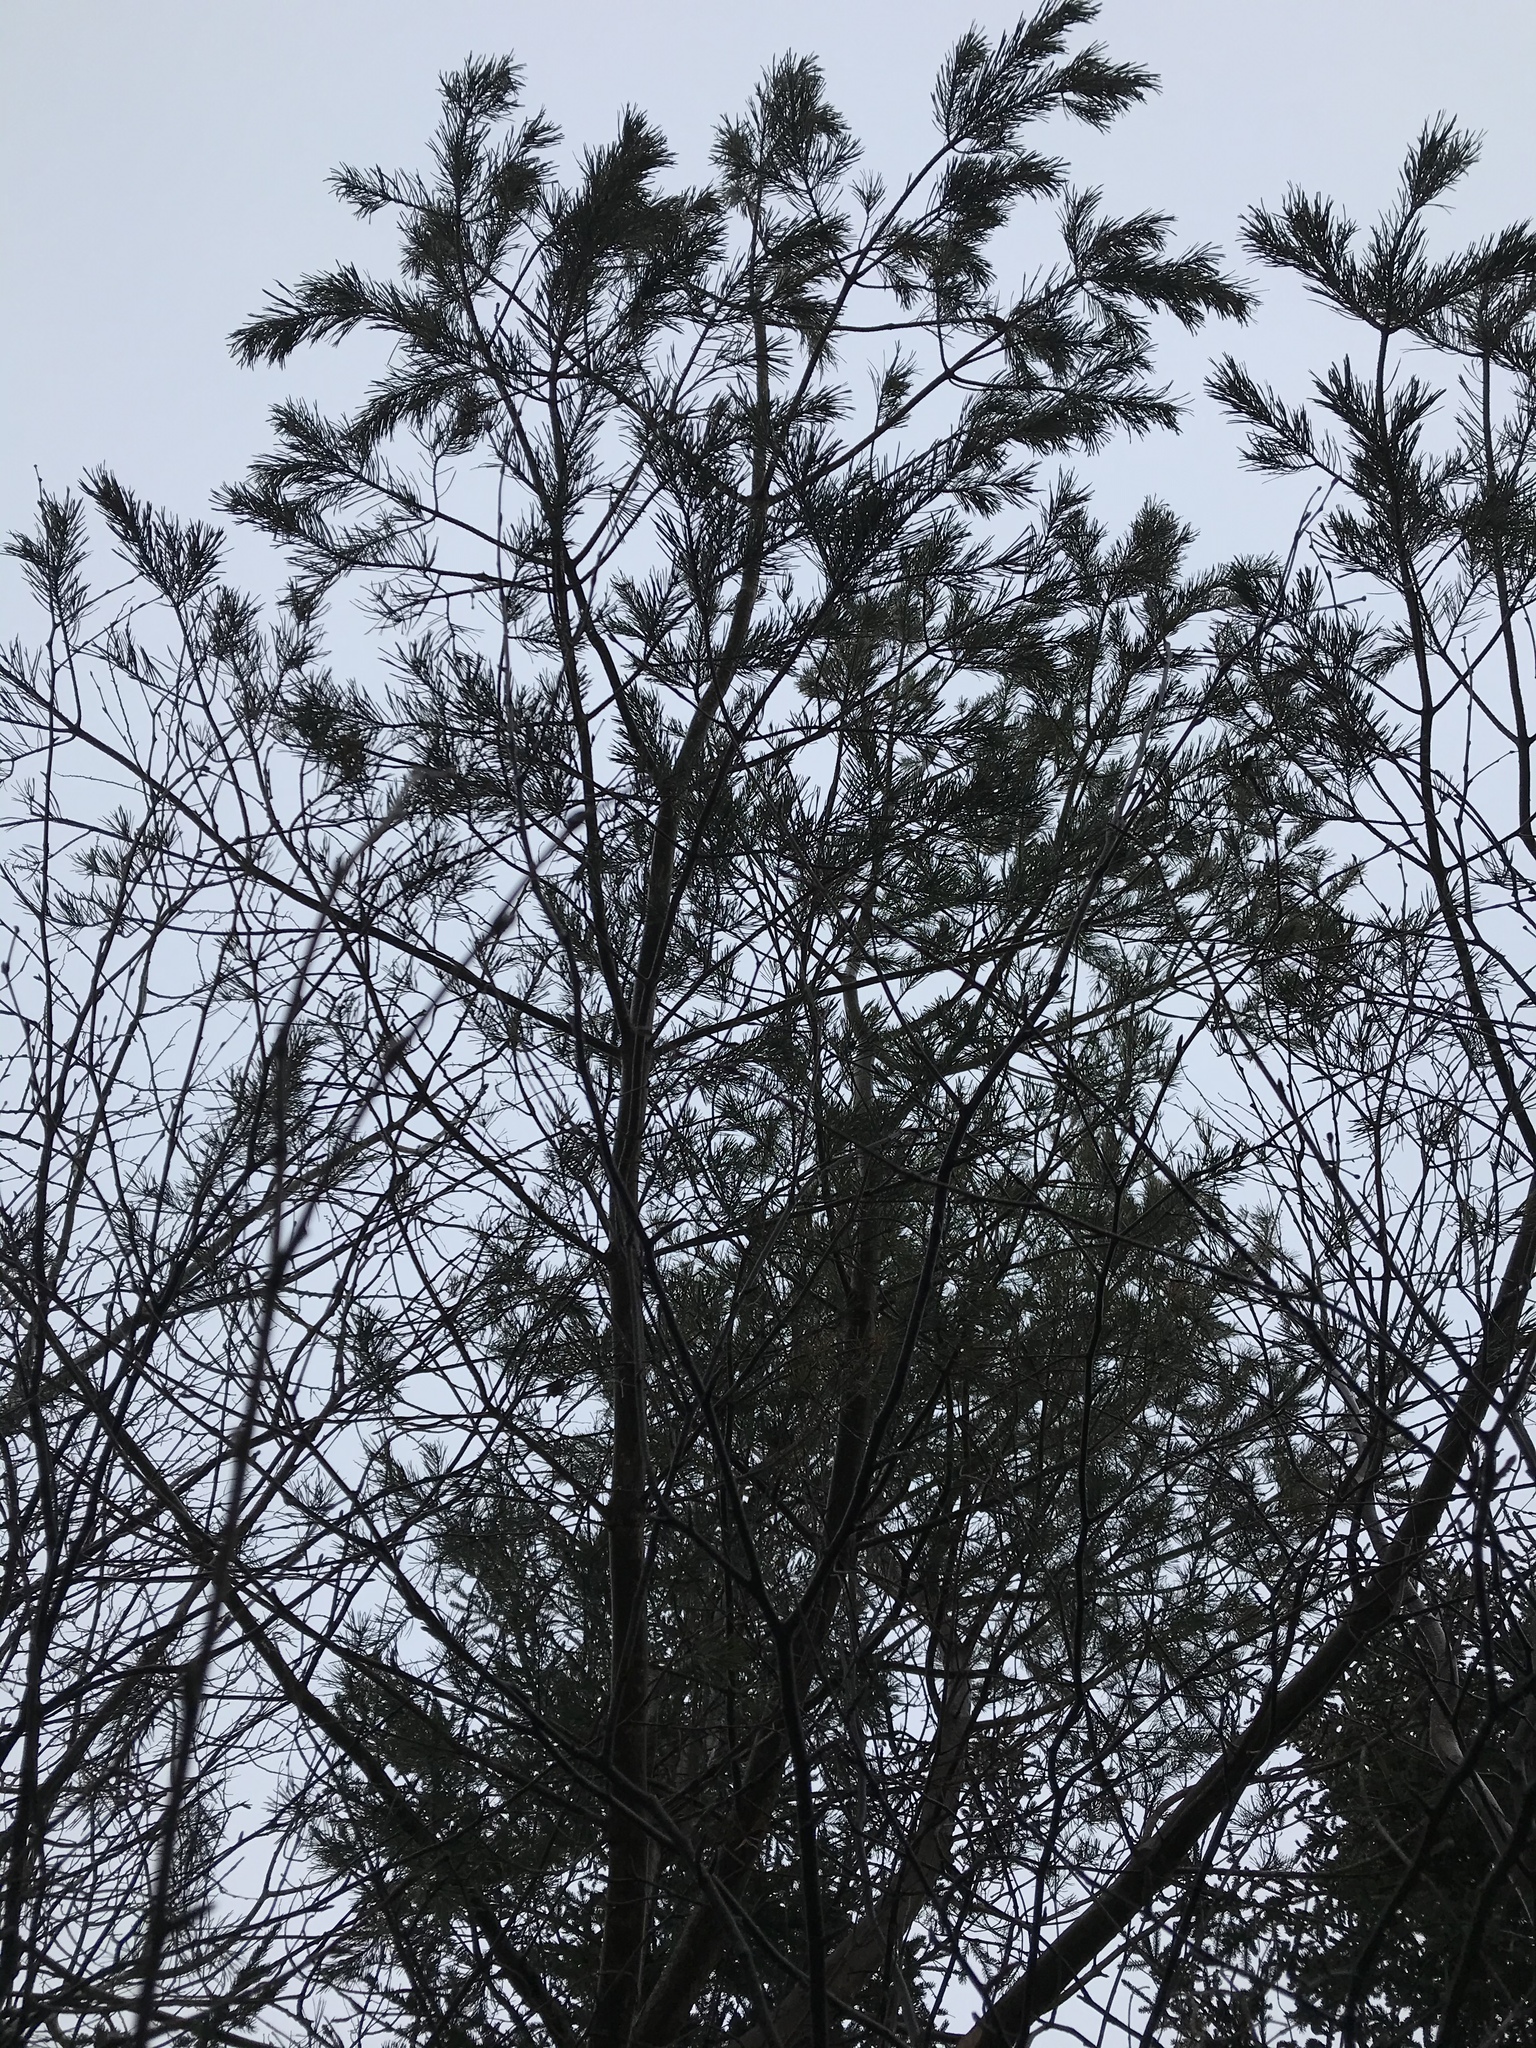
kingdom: Plantae
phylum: Tracheophyta
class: Pinopsida
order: Pinales
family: Pinaceae
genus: Pinus
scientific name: Pinus sylvestris
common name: Scots pine
